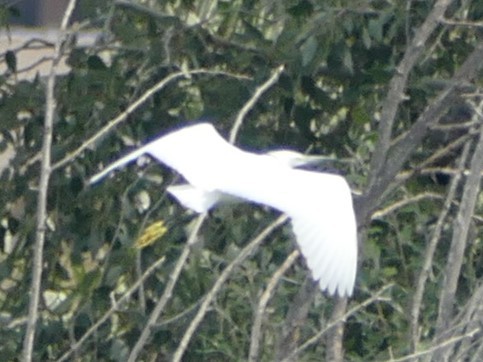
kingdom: Animalia
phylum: Chordata
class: Aves
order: Pelecaniformes
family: Ardeidae
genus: Egretta
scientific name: Egretta garzetta
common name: Little egret
